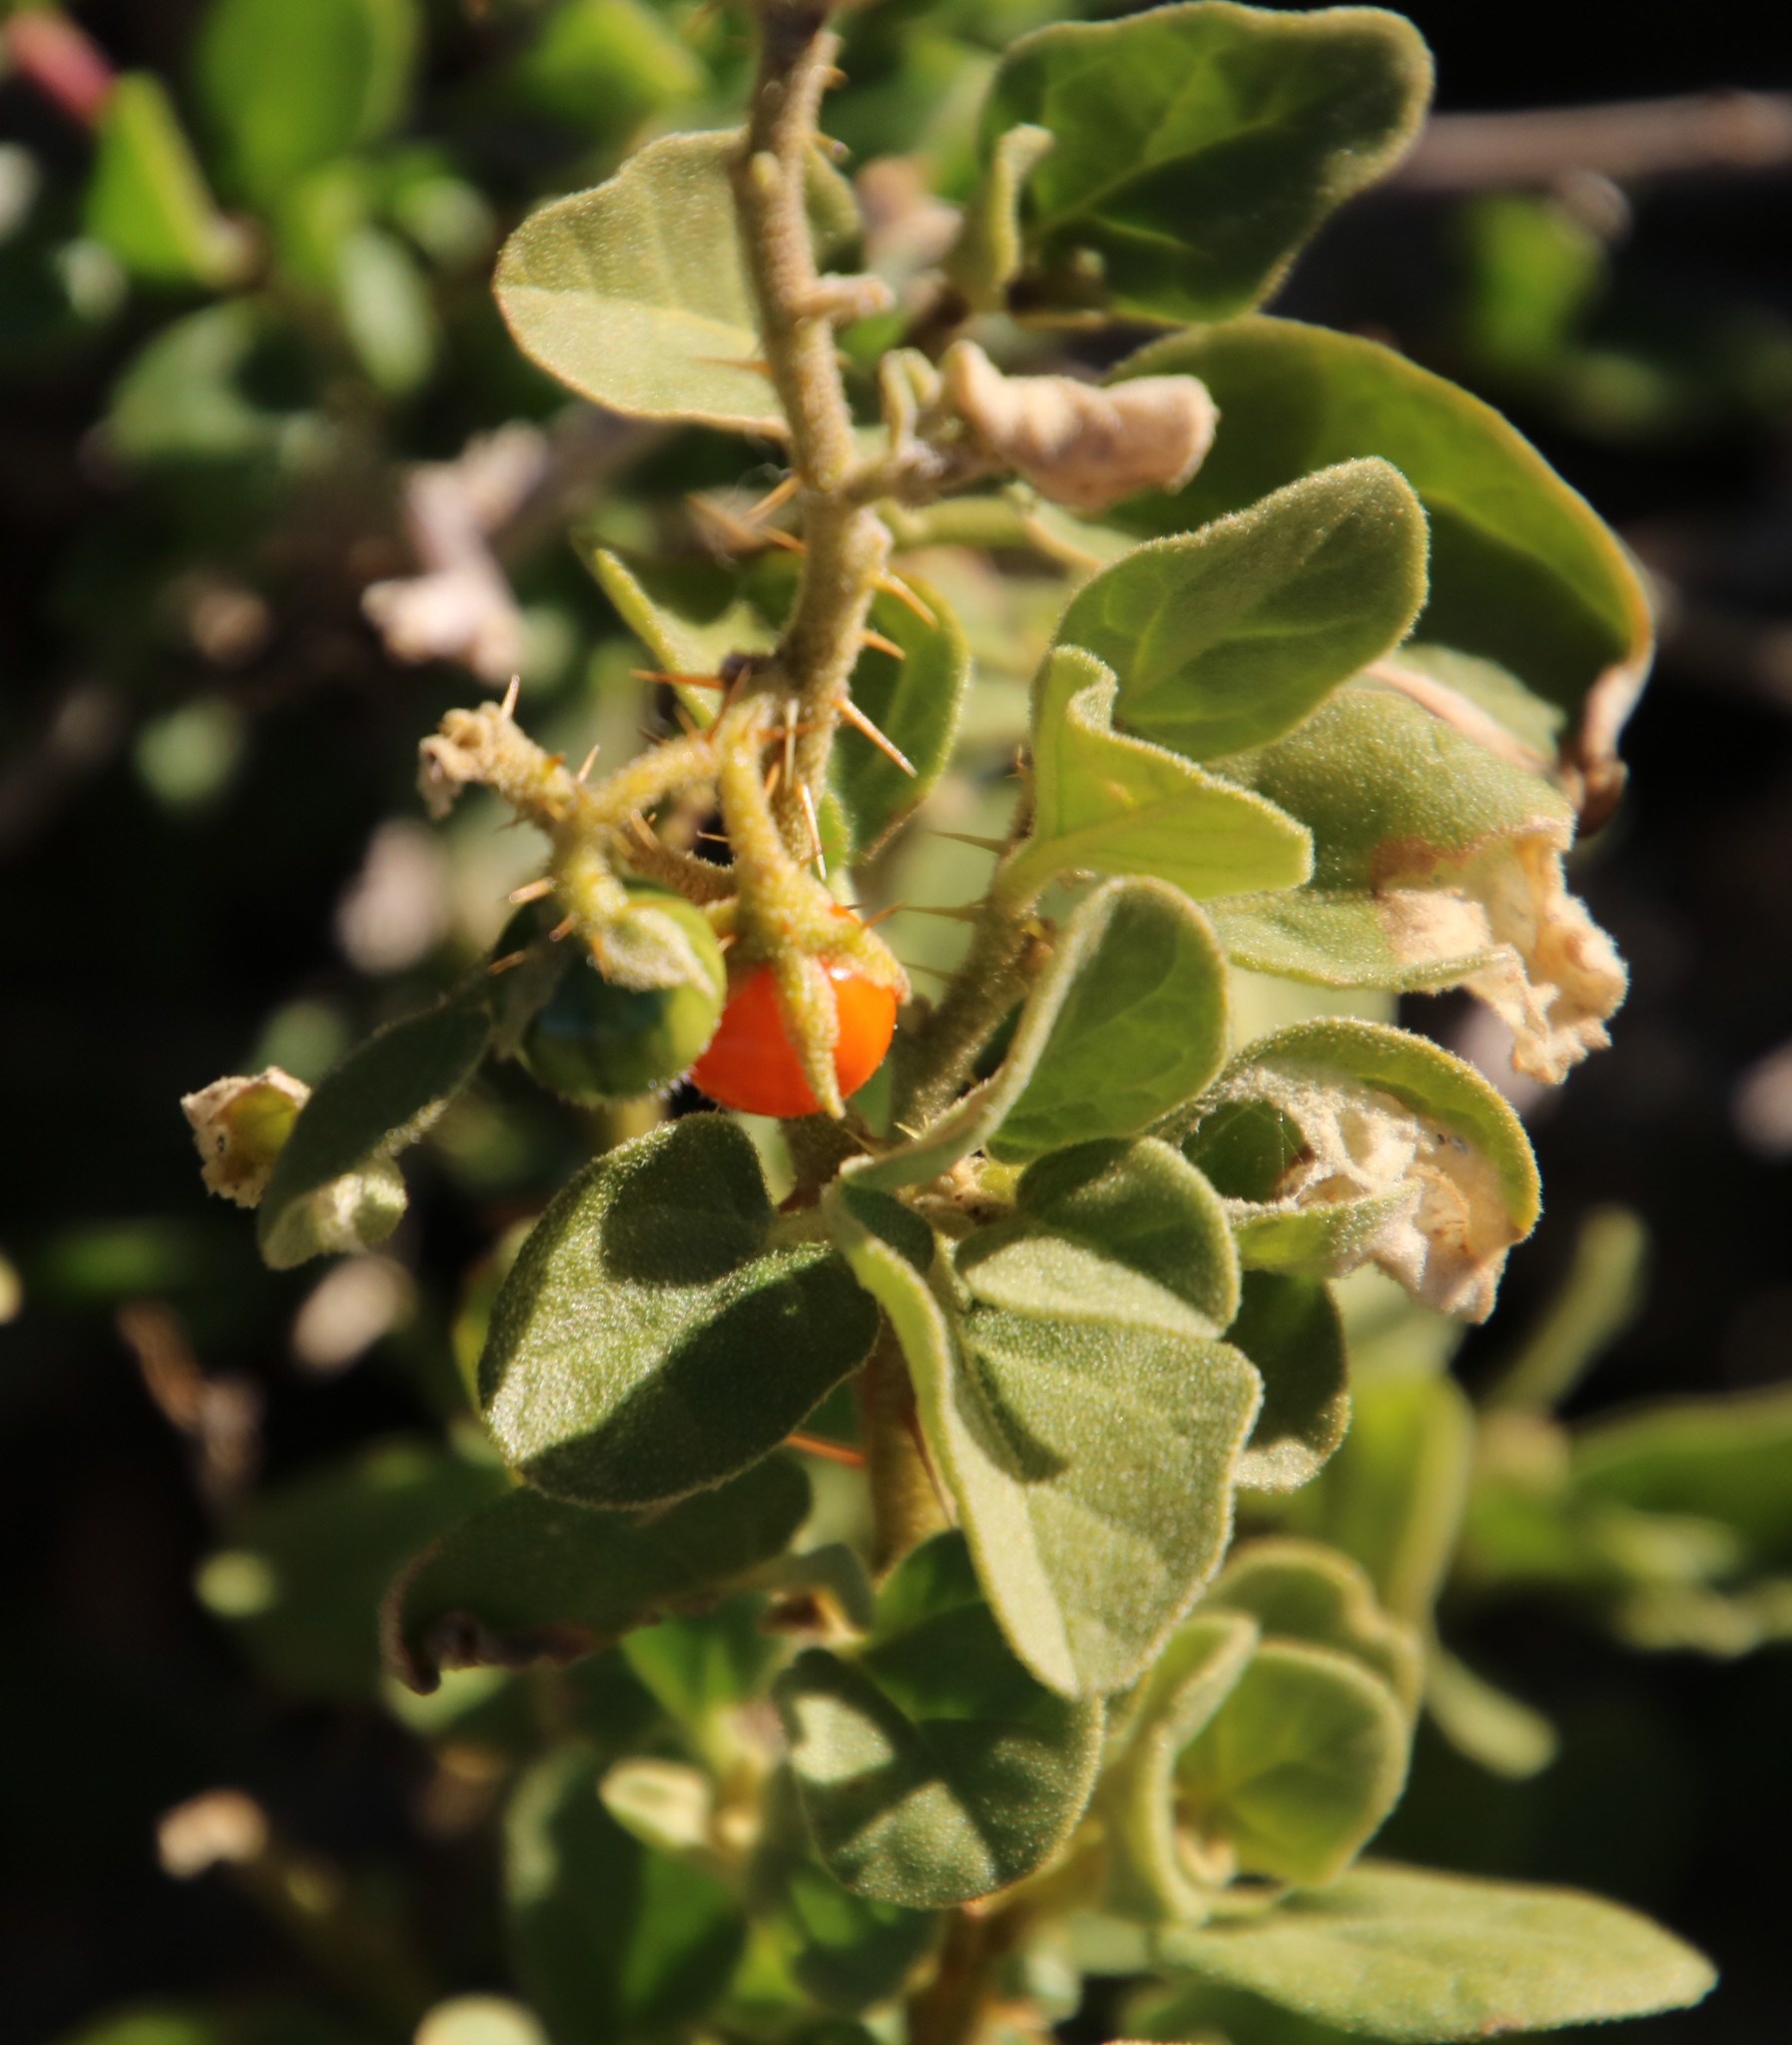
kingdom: Plantae
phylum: Tracheophyta
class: Magnoliopsida
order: Solanales
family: Solanaceae
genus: Solanum
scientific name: Solanum tomentosum
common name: Wild aubergine
